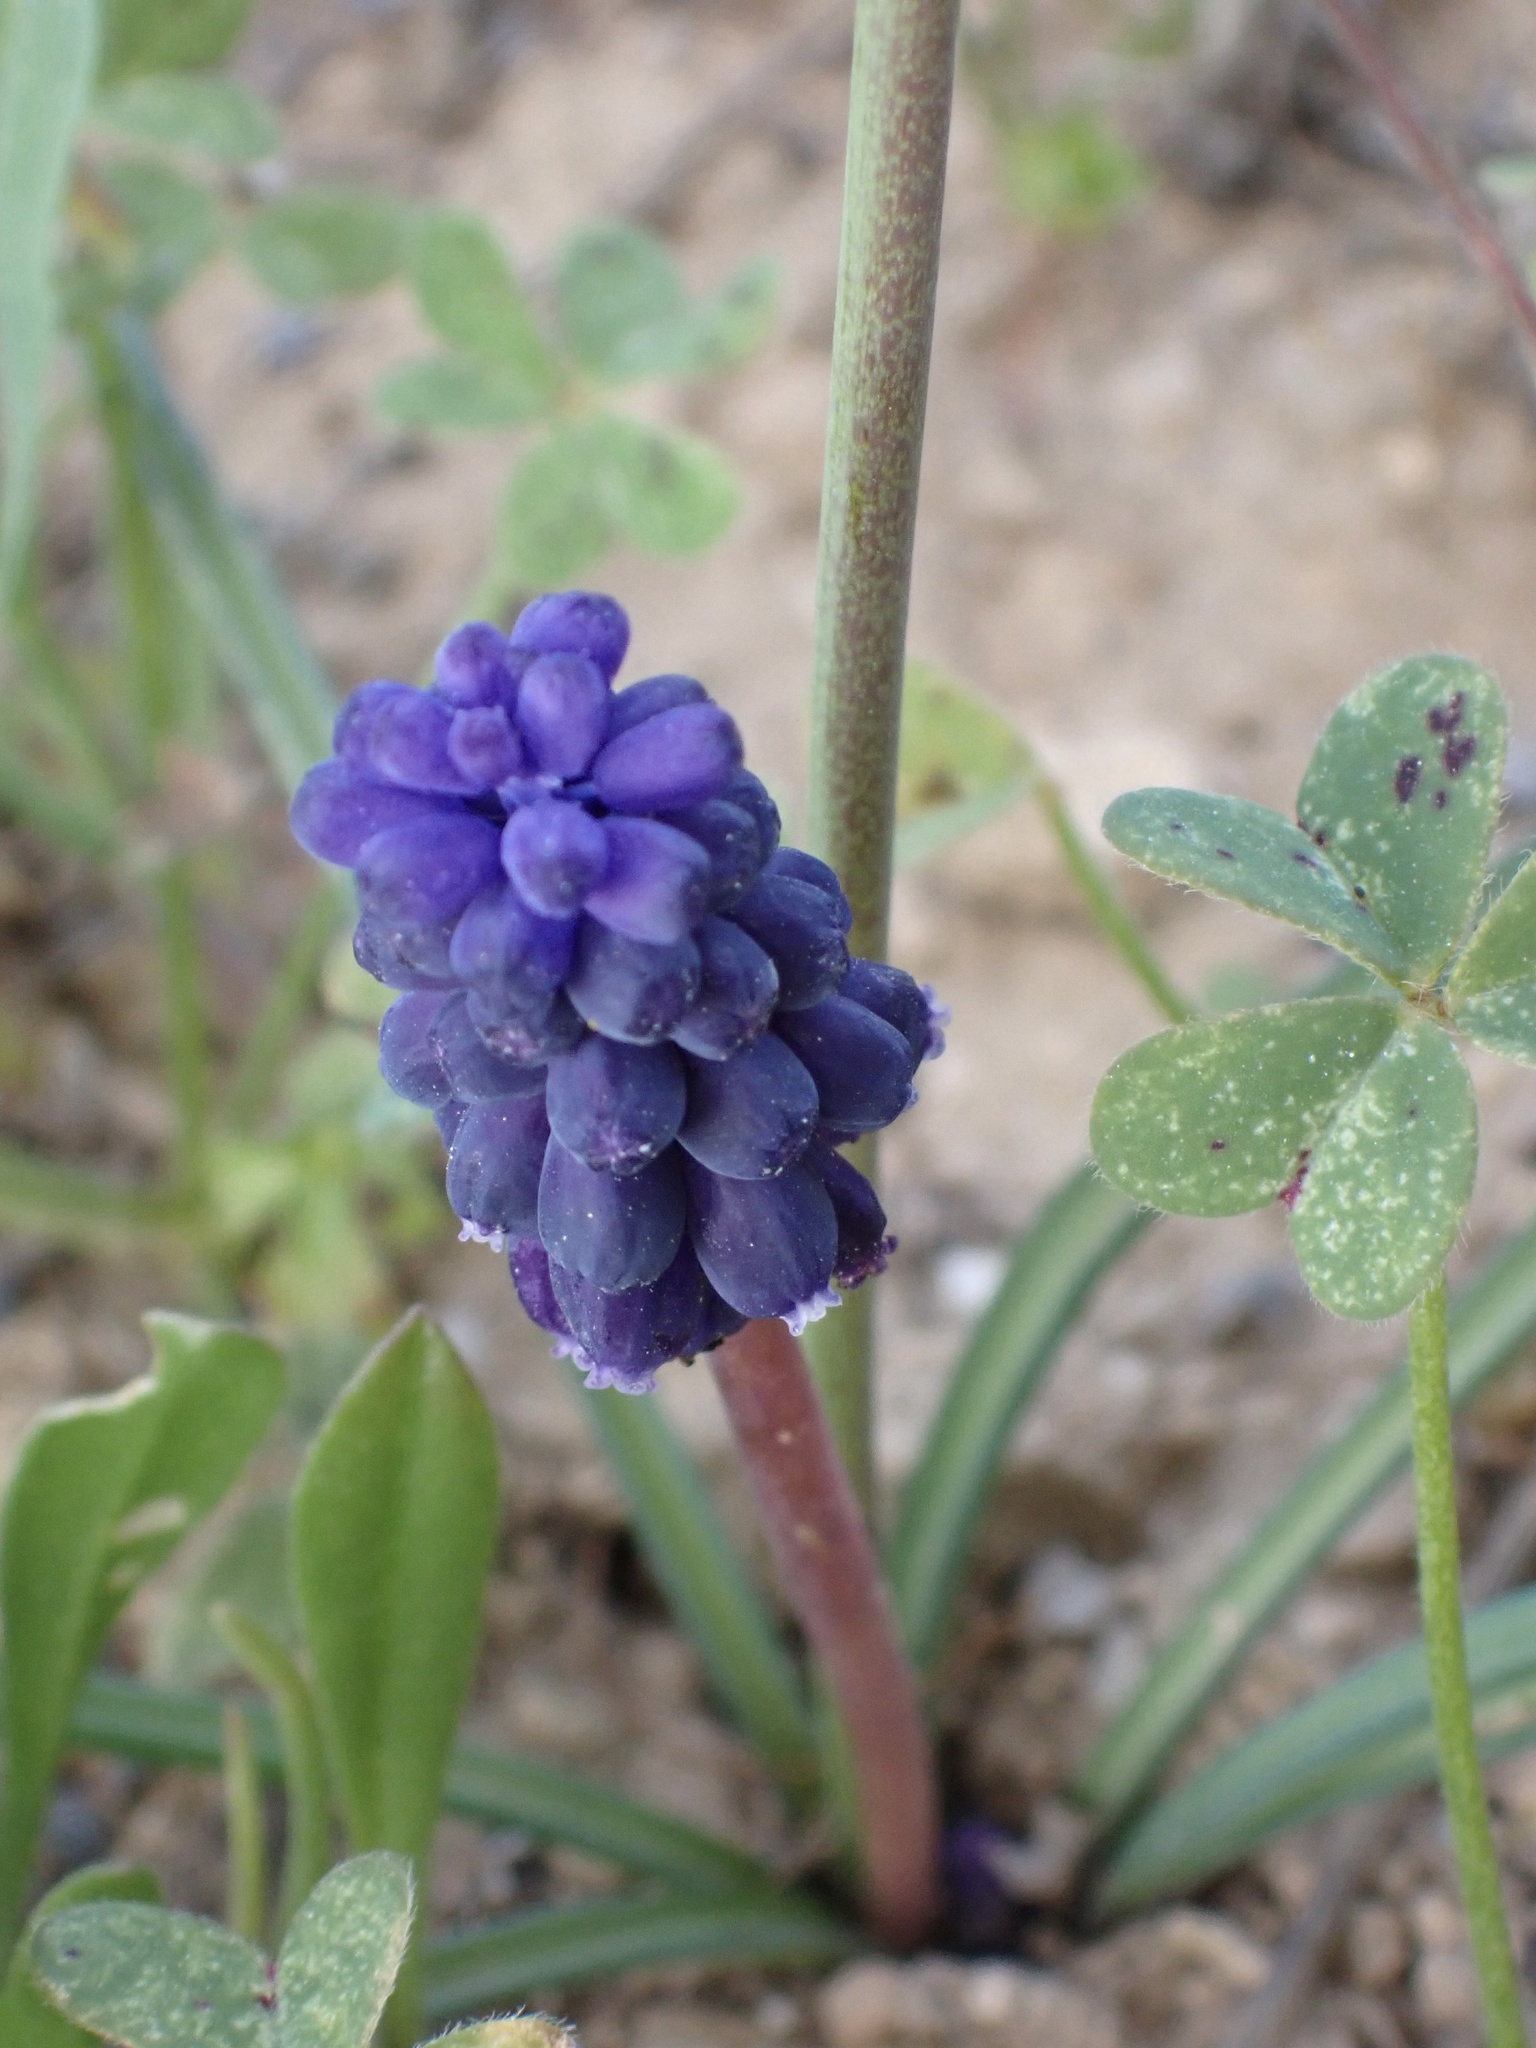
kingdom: Plantae
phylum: Tracheophyta
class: Liliopsida
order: Asparagales
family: Asparagaceae
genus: Muscari
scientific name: Muscari neglectum
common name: Grape-hyacinth
